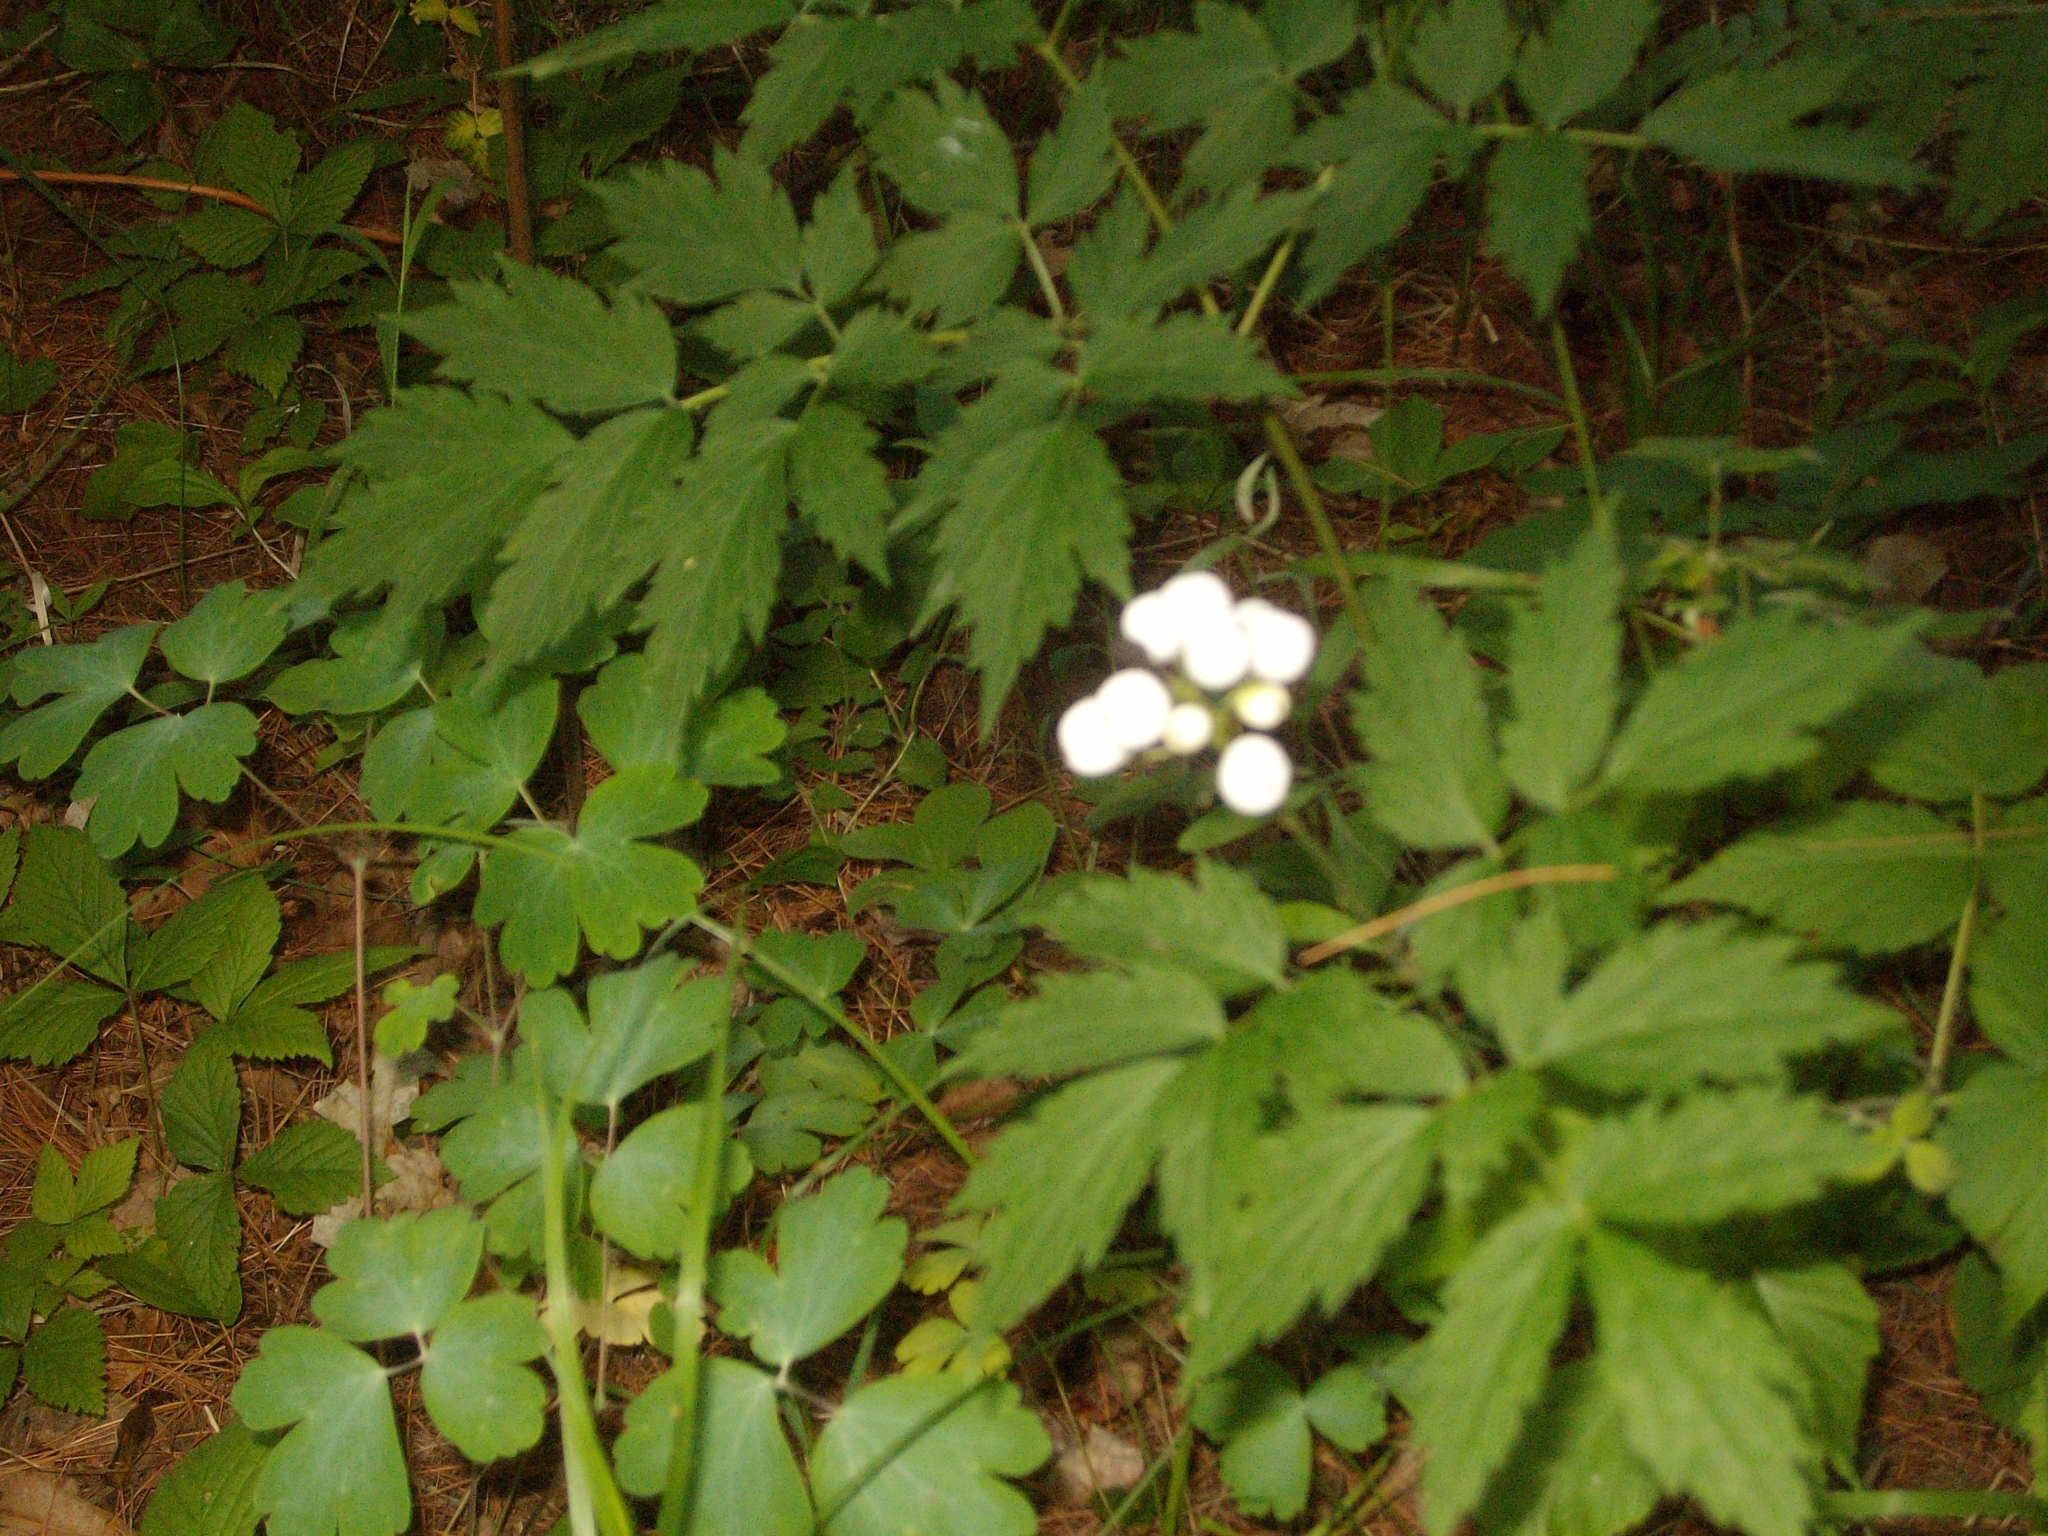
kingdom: Plantae
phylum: Tracheophyta
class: Magnoliopsida
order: Ranunculales
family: Ranunculaceae
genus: Actaea
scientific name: Actaea rubra
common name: Red baneberry
